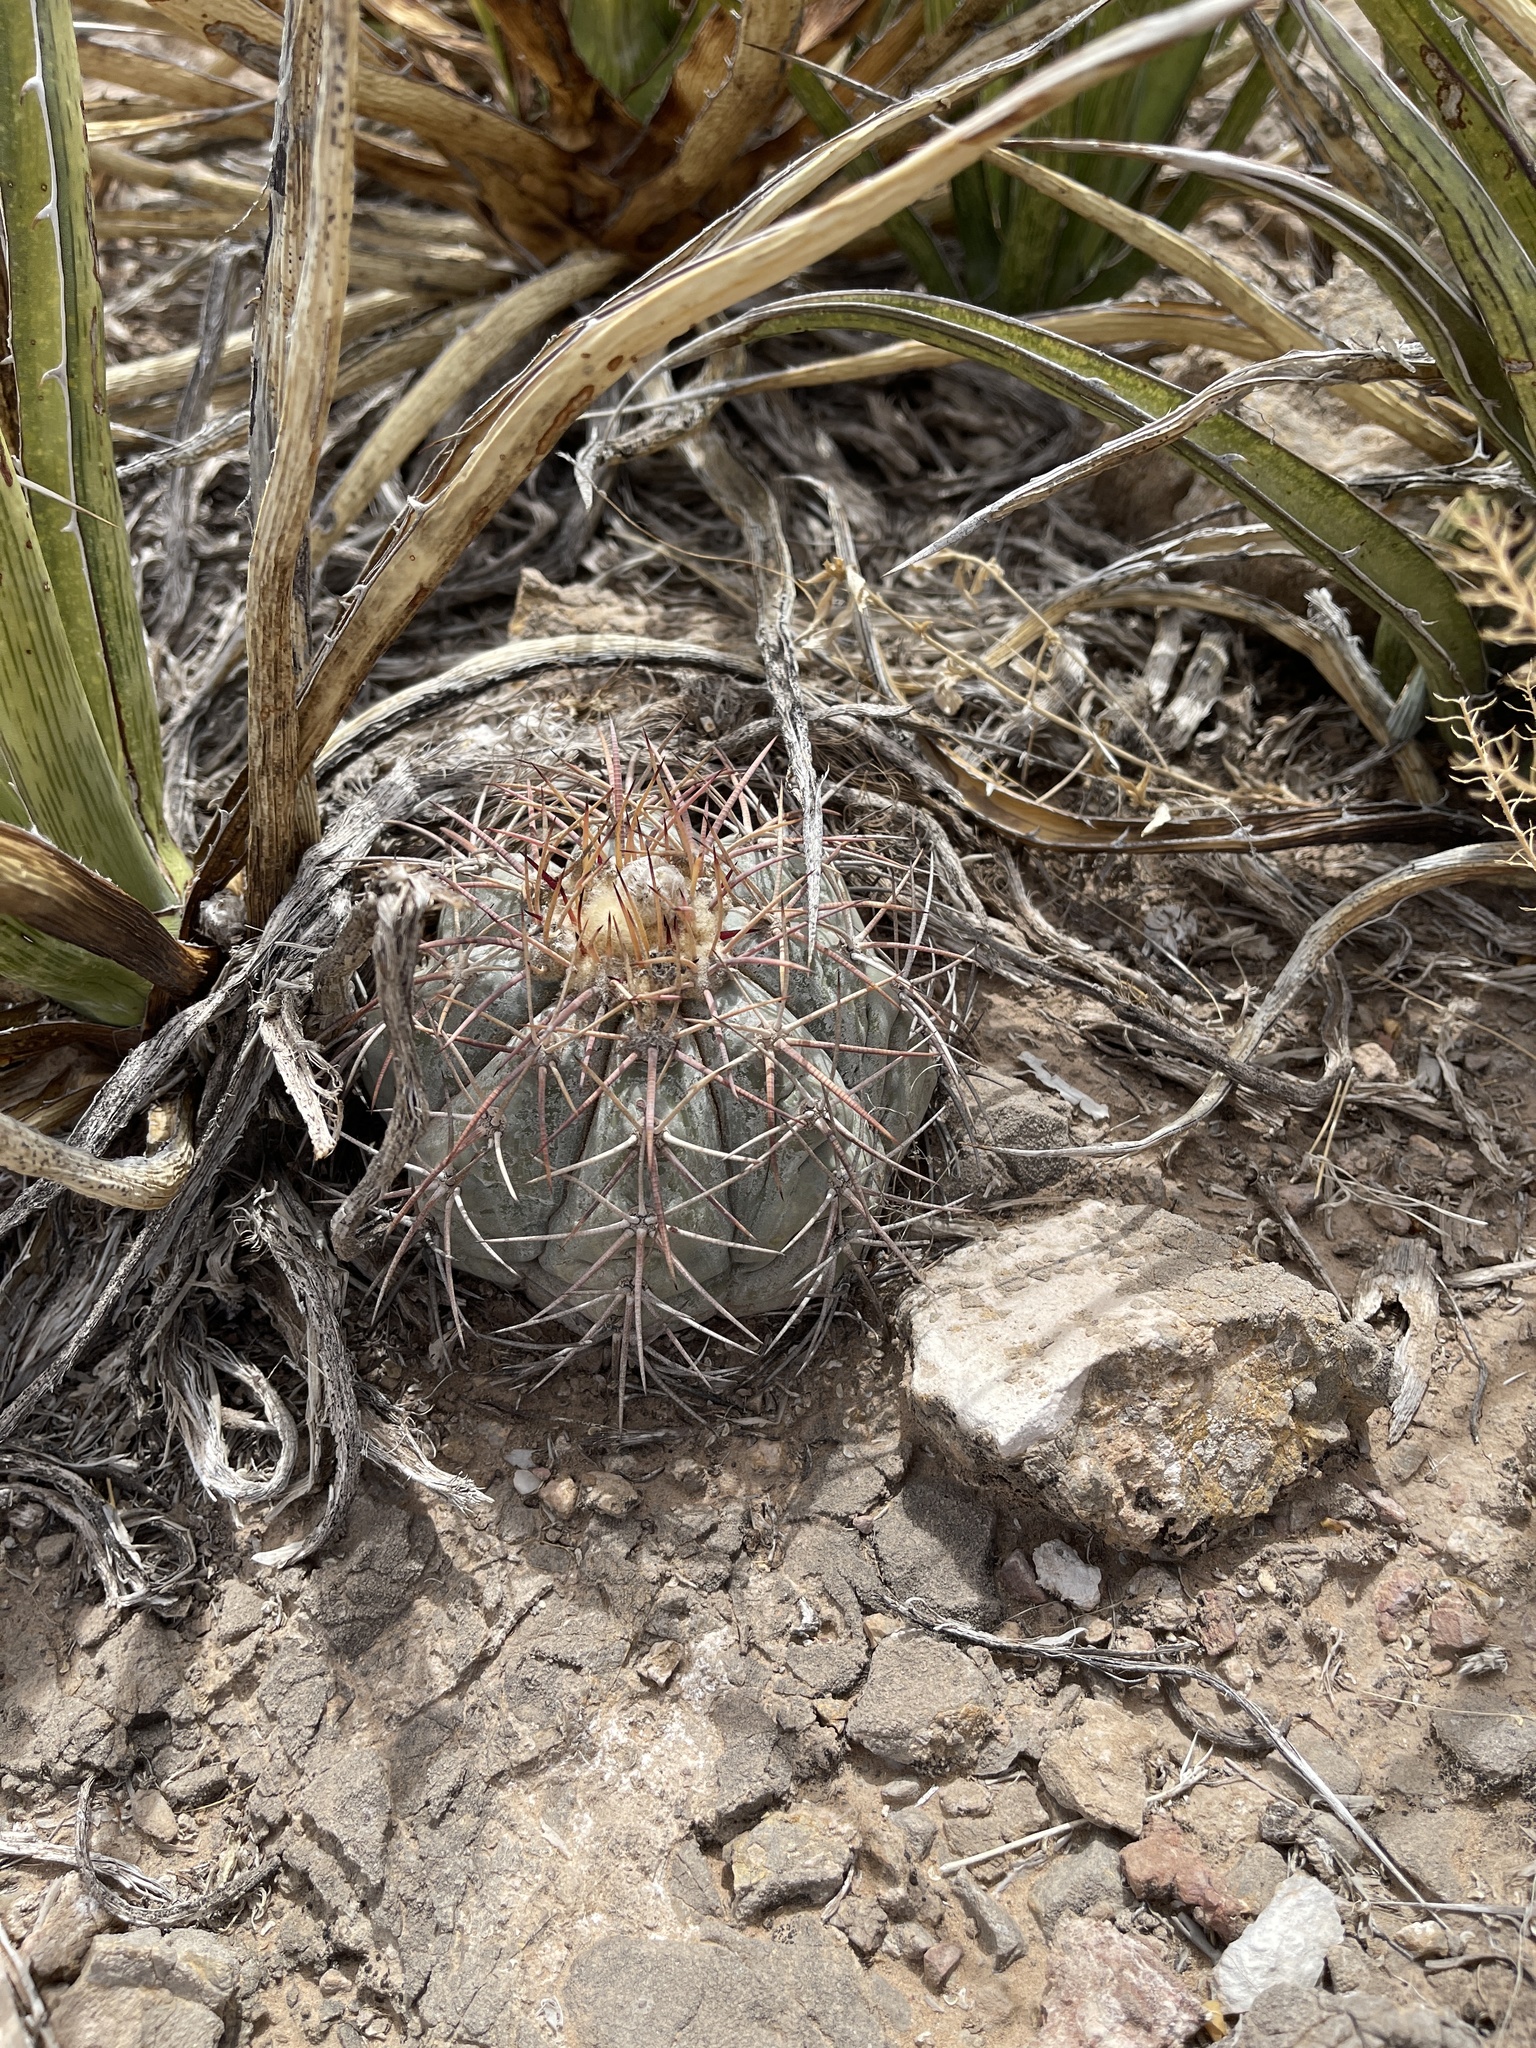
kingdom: Plantae
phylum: Tracheophyta
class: Magnoliopsida
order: Caryophyllales
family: Cactaceae
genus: Echinocactus
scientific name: Echinocactus horizonthalonius
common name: Devilshead
